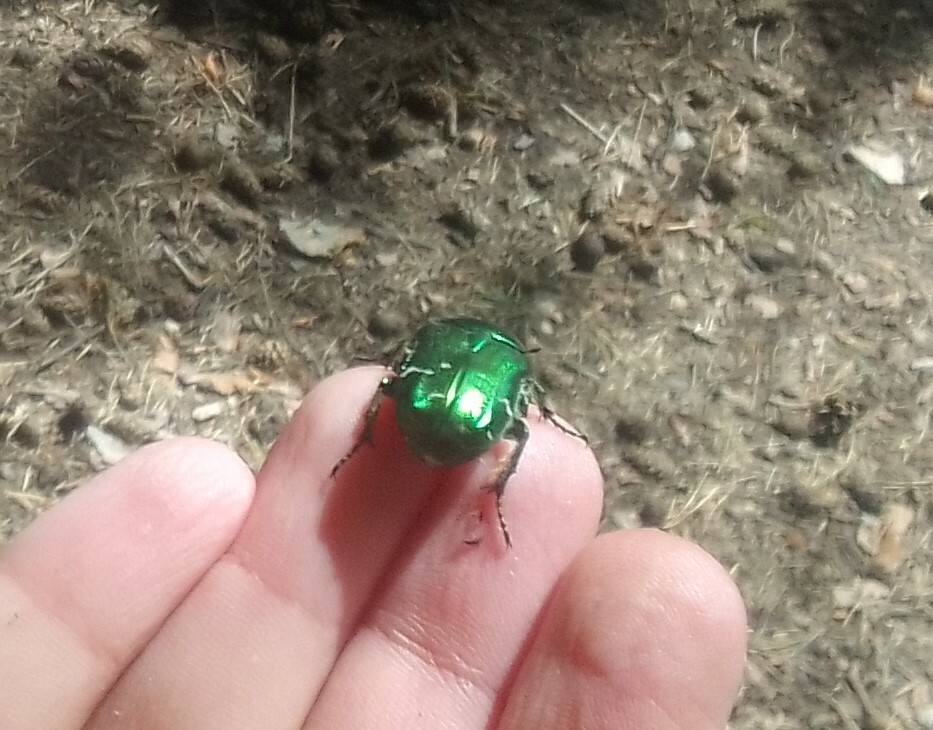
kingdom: Animalia
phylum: Arthropoda
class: Insecta
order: Coleoptera
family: Scarabaeidae
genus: Cetonia
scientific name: Cetonia aurata
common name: Rose chafer
